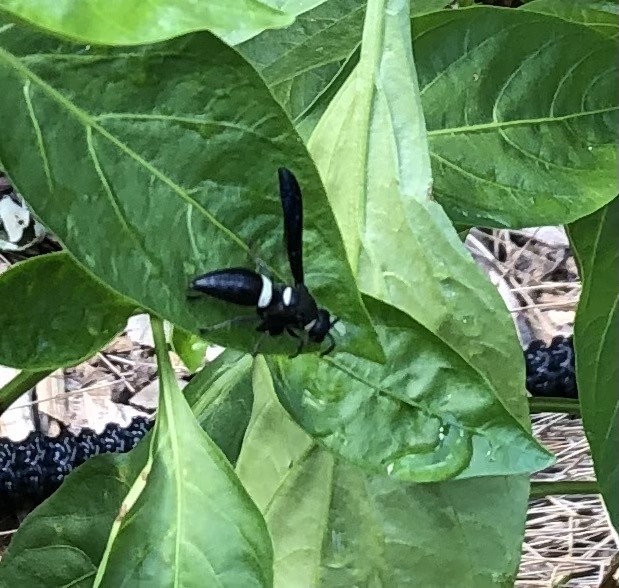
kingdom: Animalia
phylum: Arthropoda
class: Insecta
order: Hymenoptera
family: Eumenidae
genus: Monobia
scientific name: Monobia quadridens
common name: Four-toothed mason wasp
